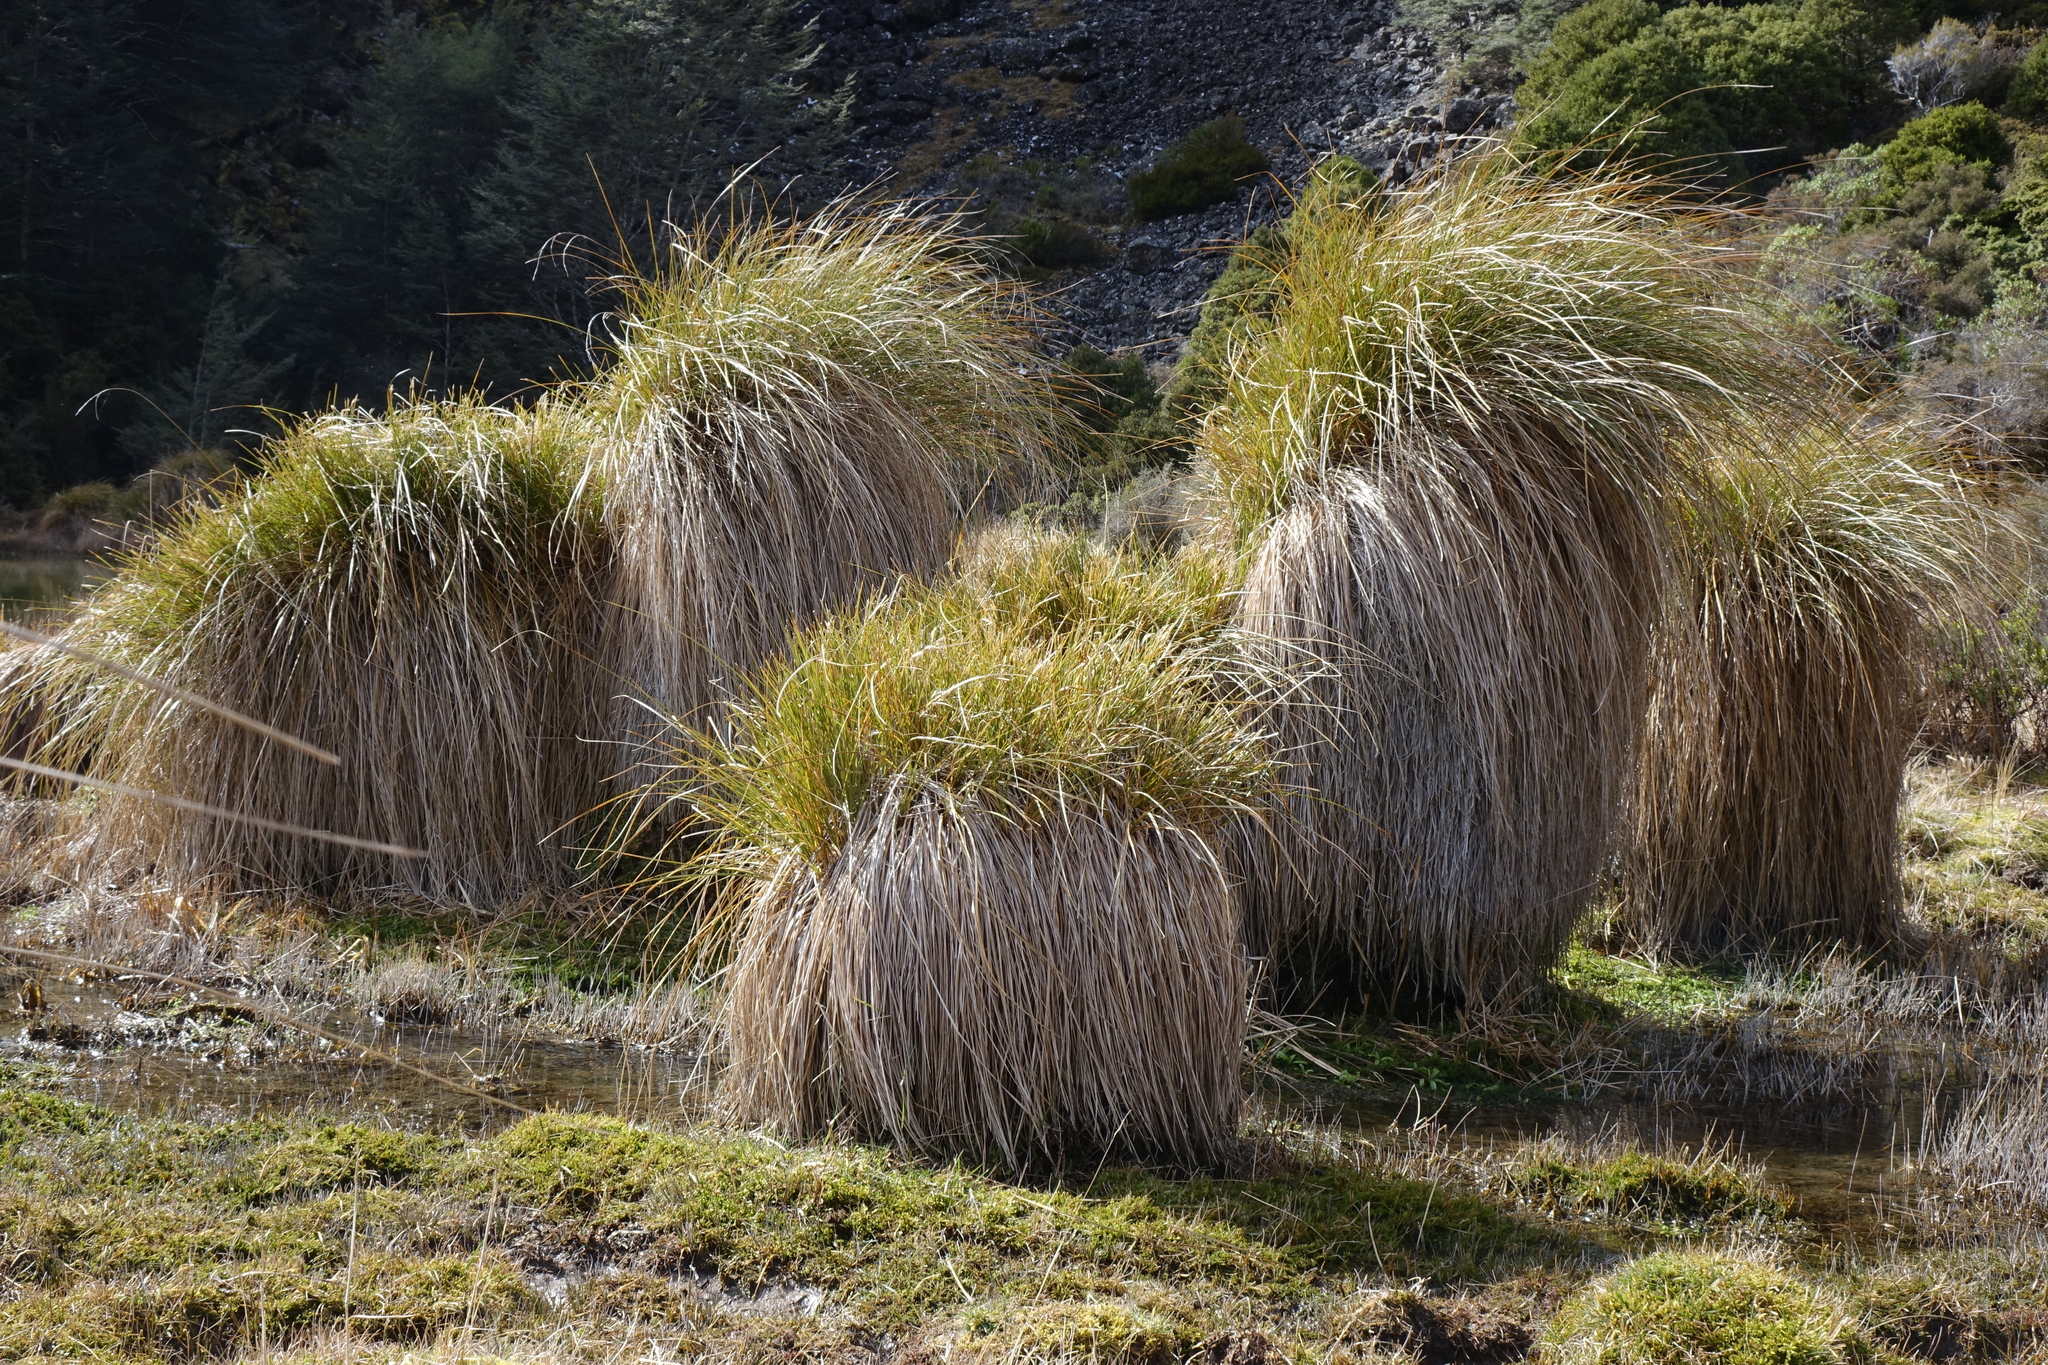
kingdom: Plantae
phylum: Tracheophyta
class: Liliopsida
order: Poales
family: Cyperaceae
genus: Carex
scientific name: Carex secta
